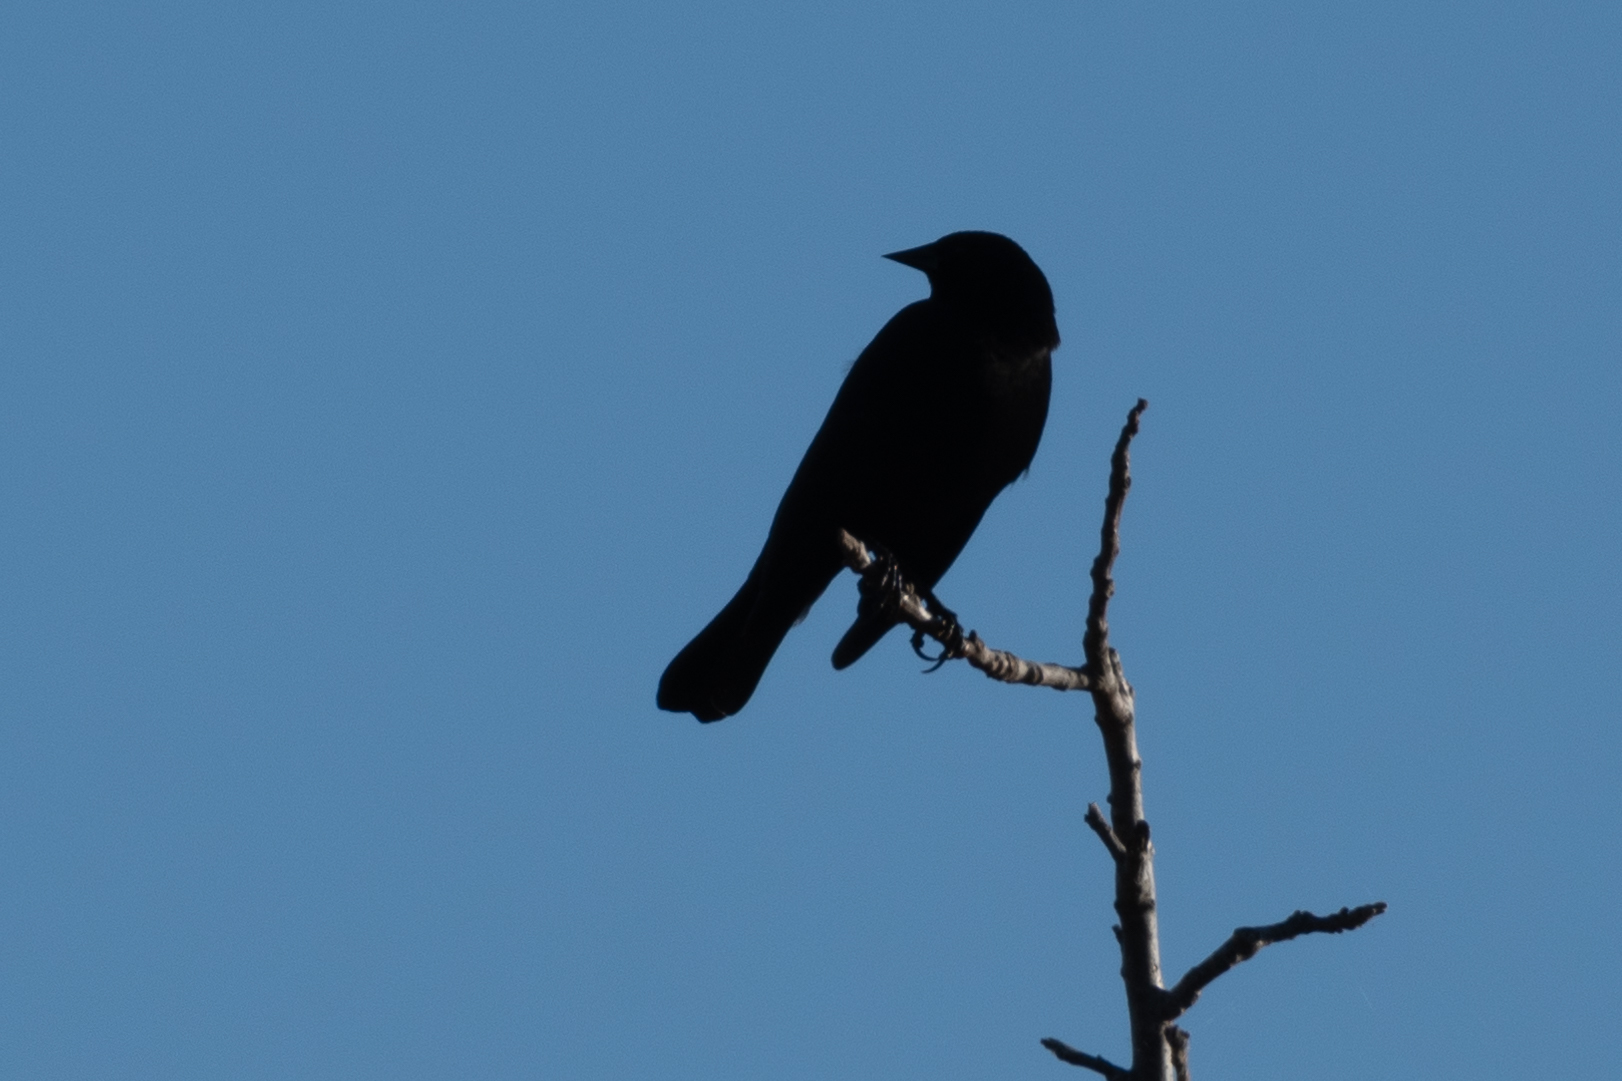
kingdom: Animalia
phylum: Chordata
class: Aves
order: Passeriformes
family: Icteridae
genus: Euphagus
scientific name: Euphagus cyanocephalus
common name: Brewer's blackbird
